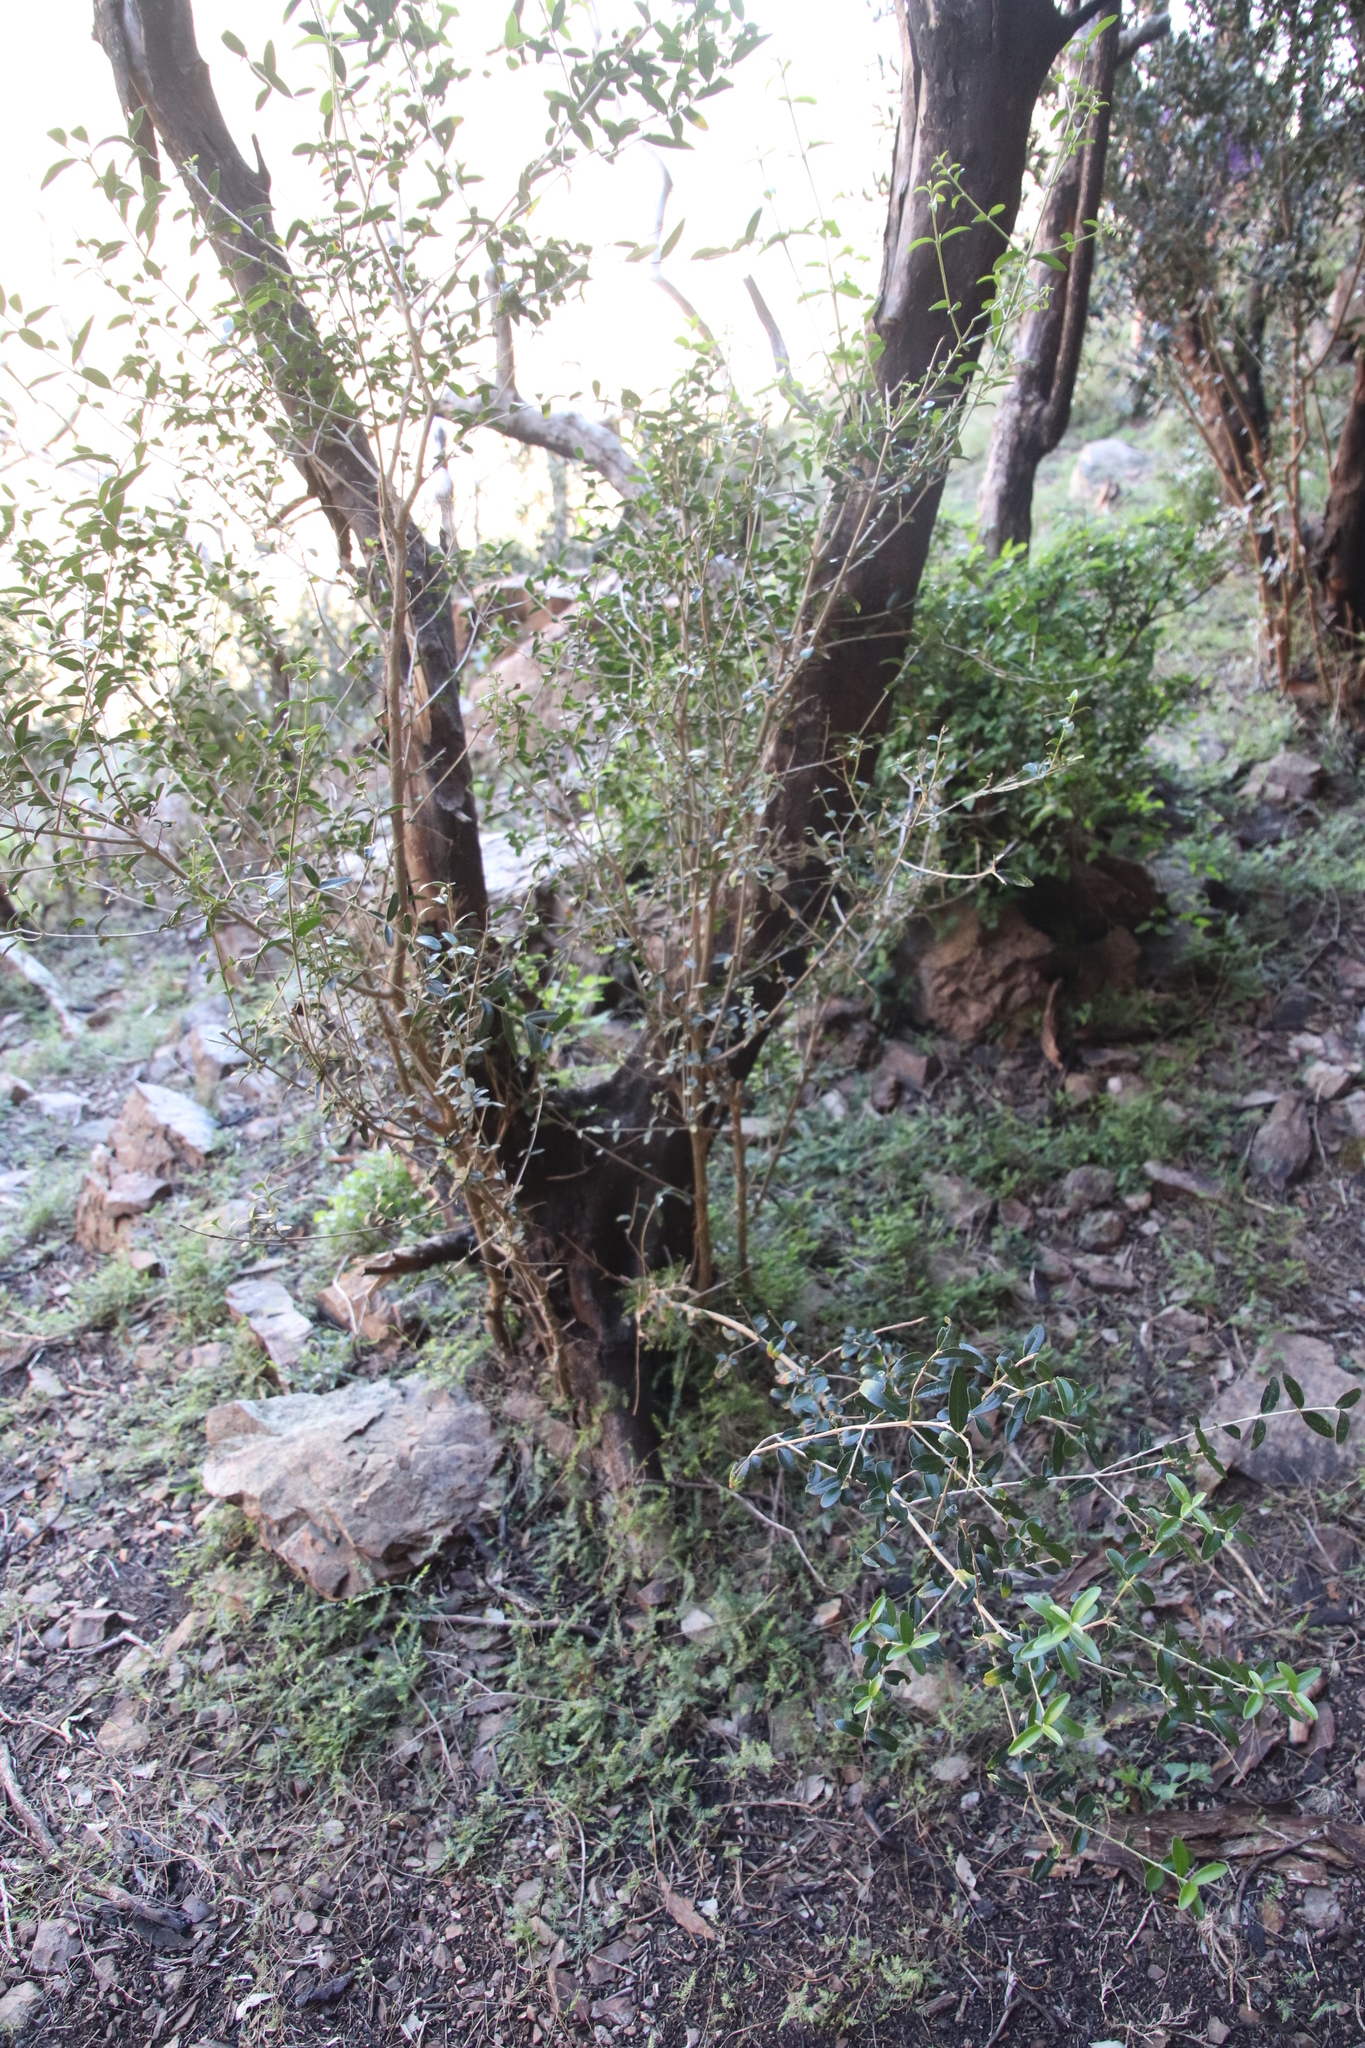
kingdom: Plantae
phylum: Tracheophyta
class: Magnoliopsida
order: Lamiales
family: Oleaceae
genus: Olea
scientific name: Olea europaea
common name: Olive
